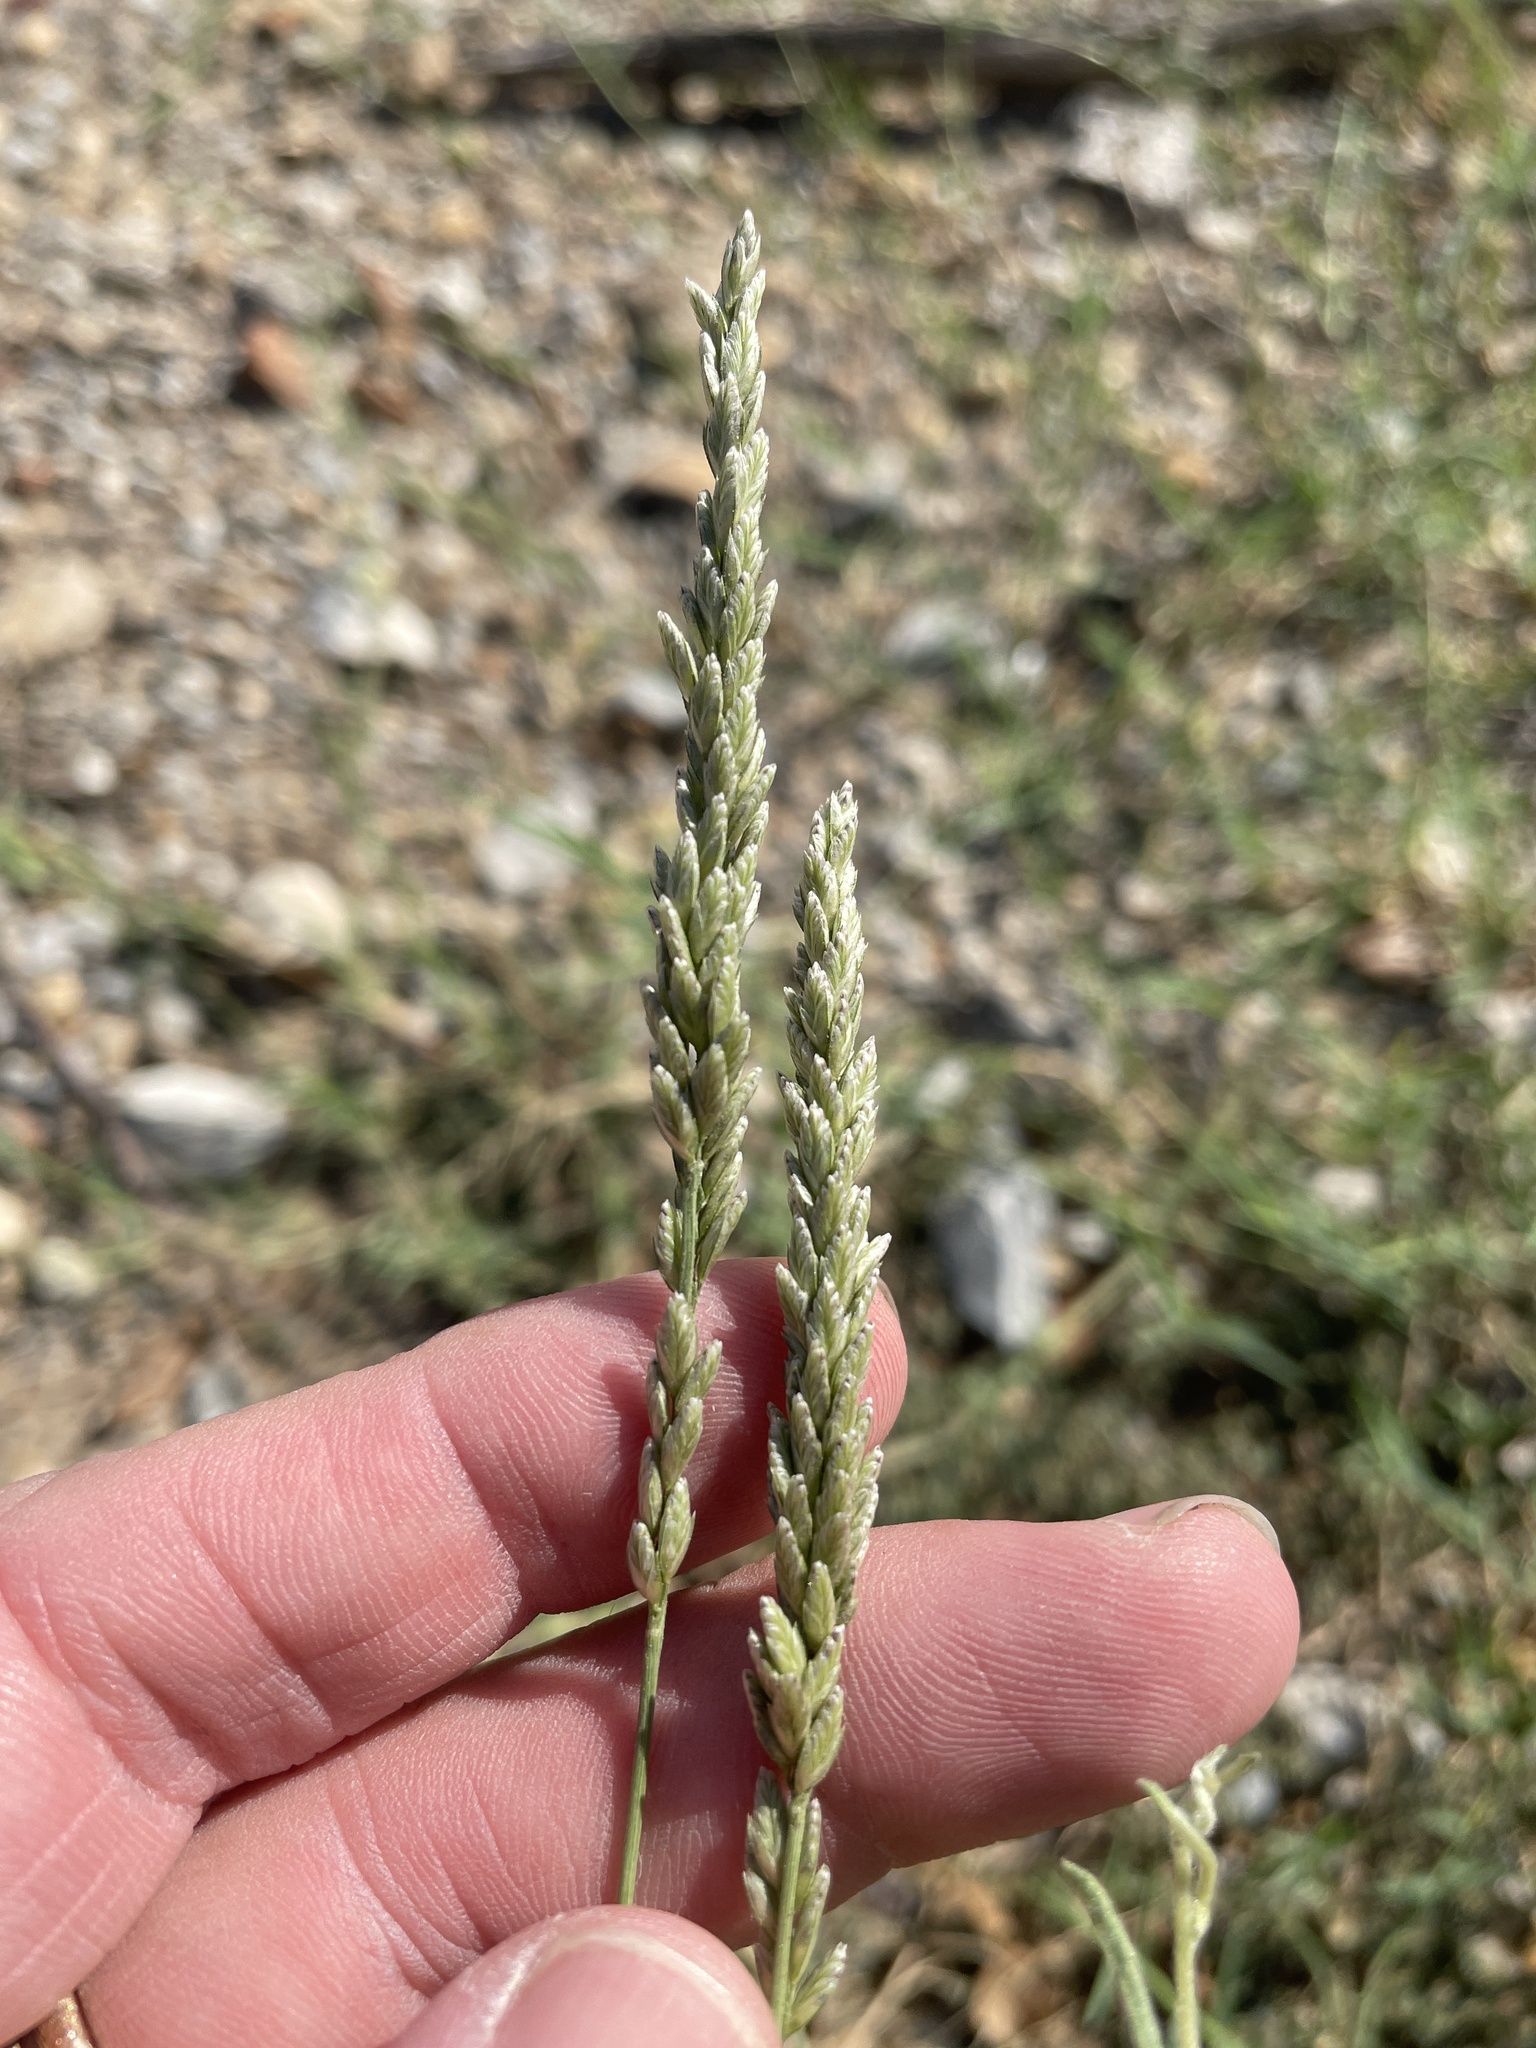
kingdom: Plantae
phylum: Tracheophyta
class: Liliopsida
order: Poales
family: Poaceae
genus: Tridens
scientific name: Tridens albescens
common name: White tridens
